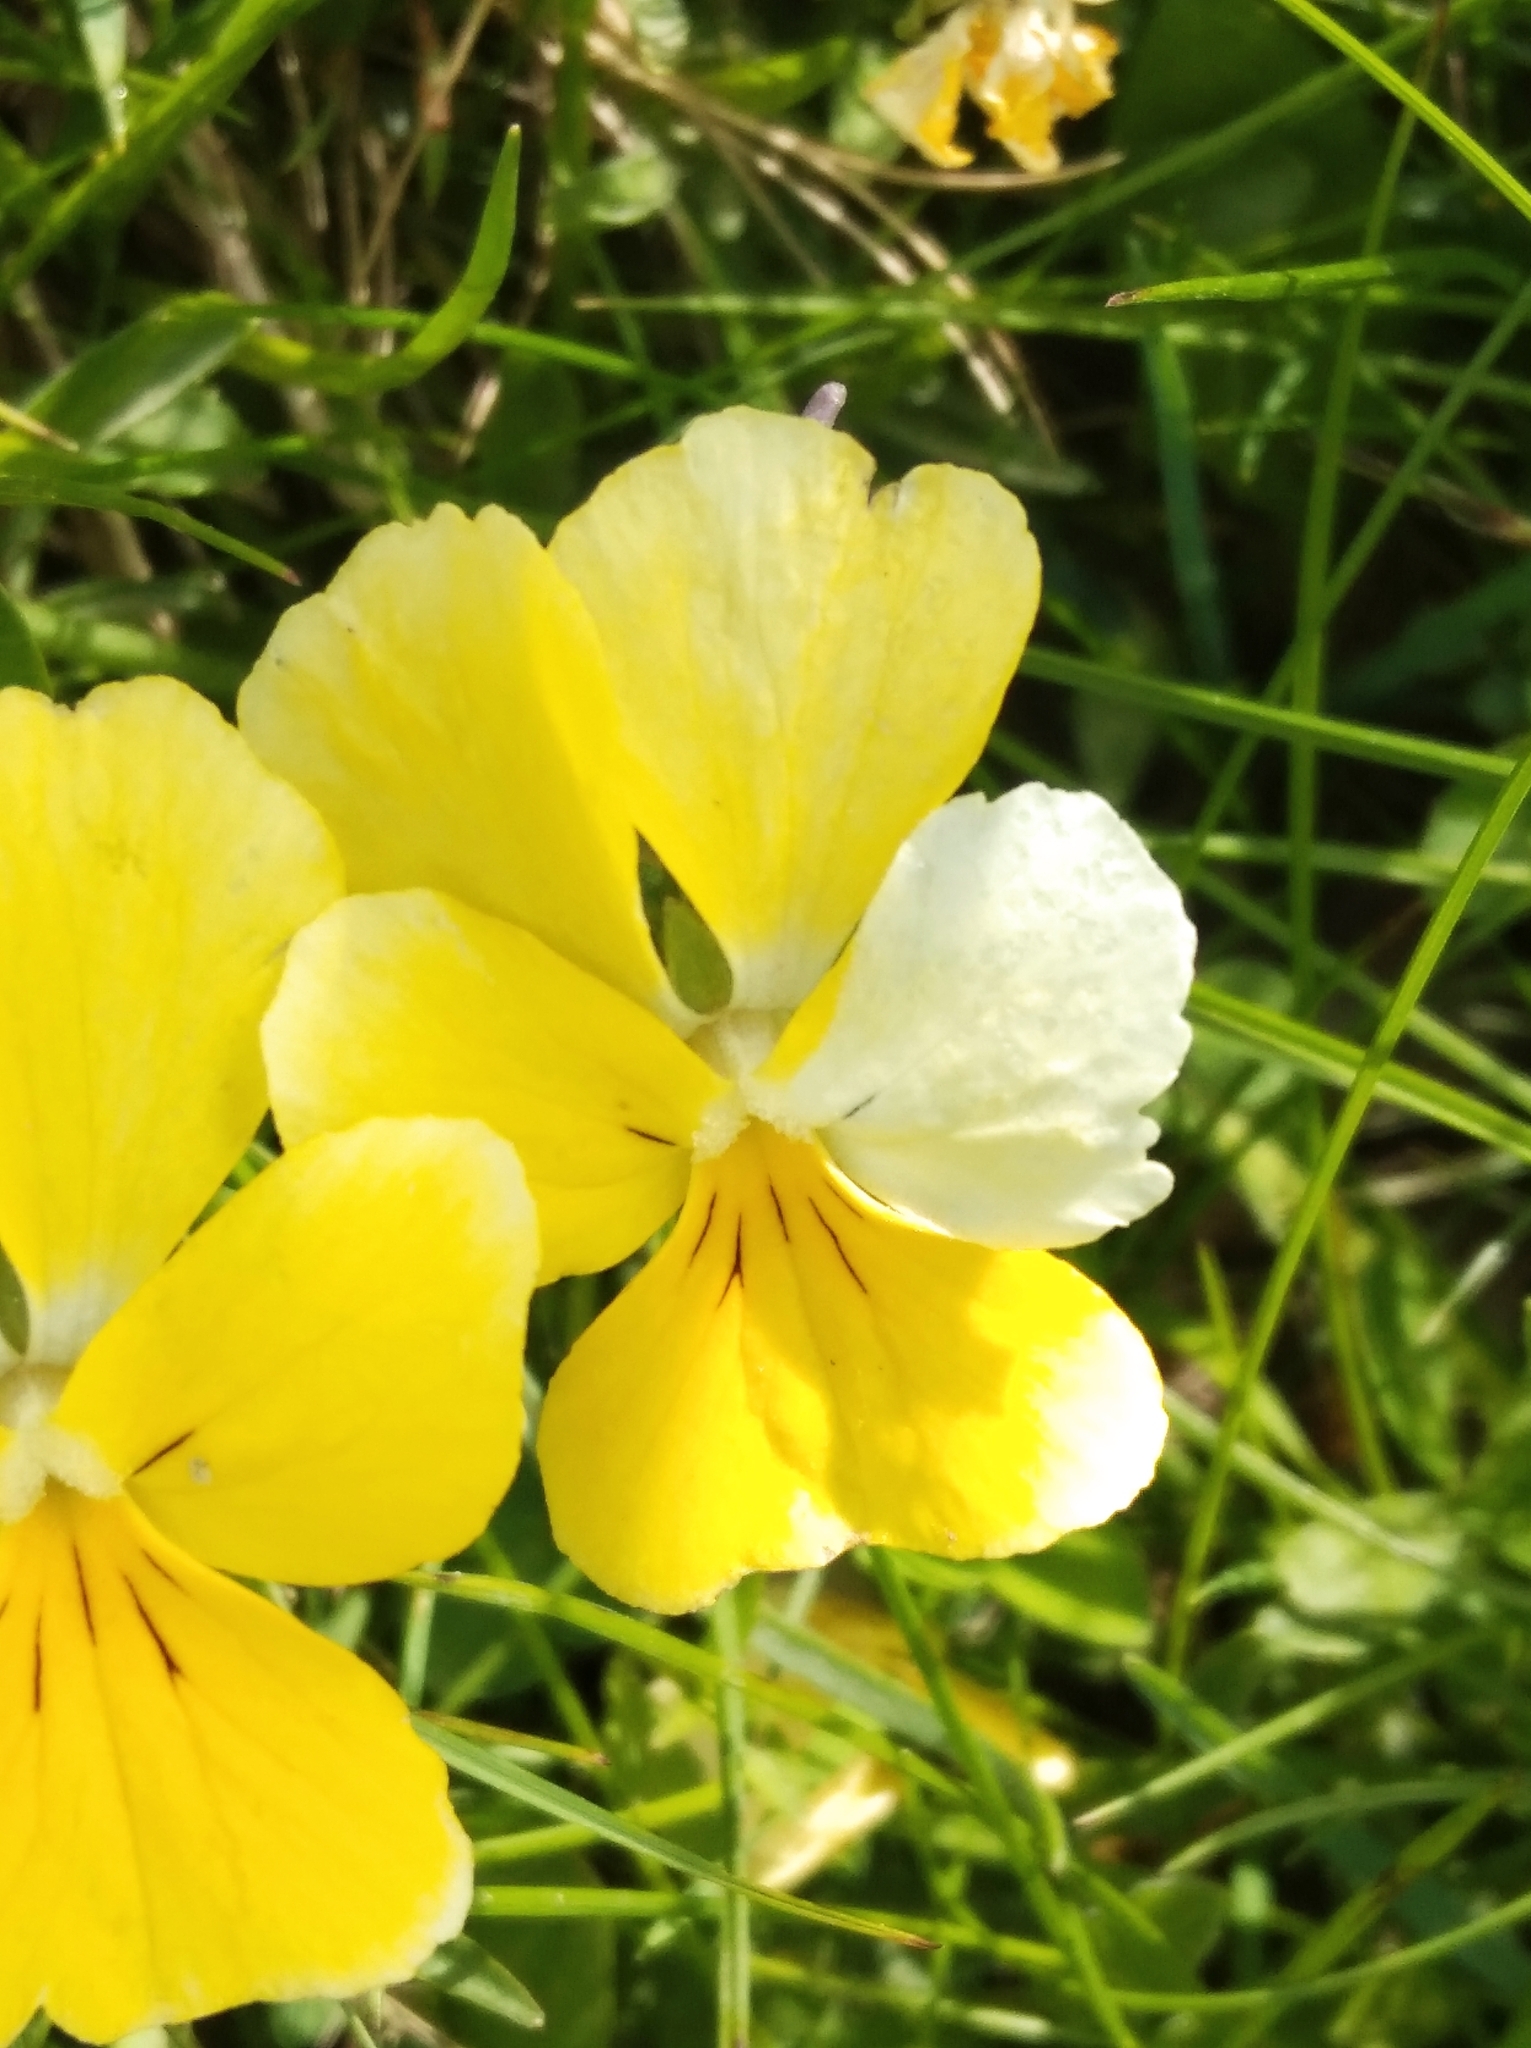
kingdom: Plantae
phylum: Tracheophyta
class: Magnoliopsida
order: Malpighiales
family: Violaceae
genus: Viola
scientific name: Viola calcarata
